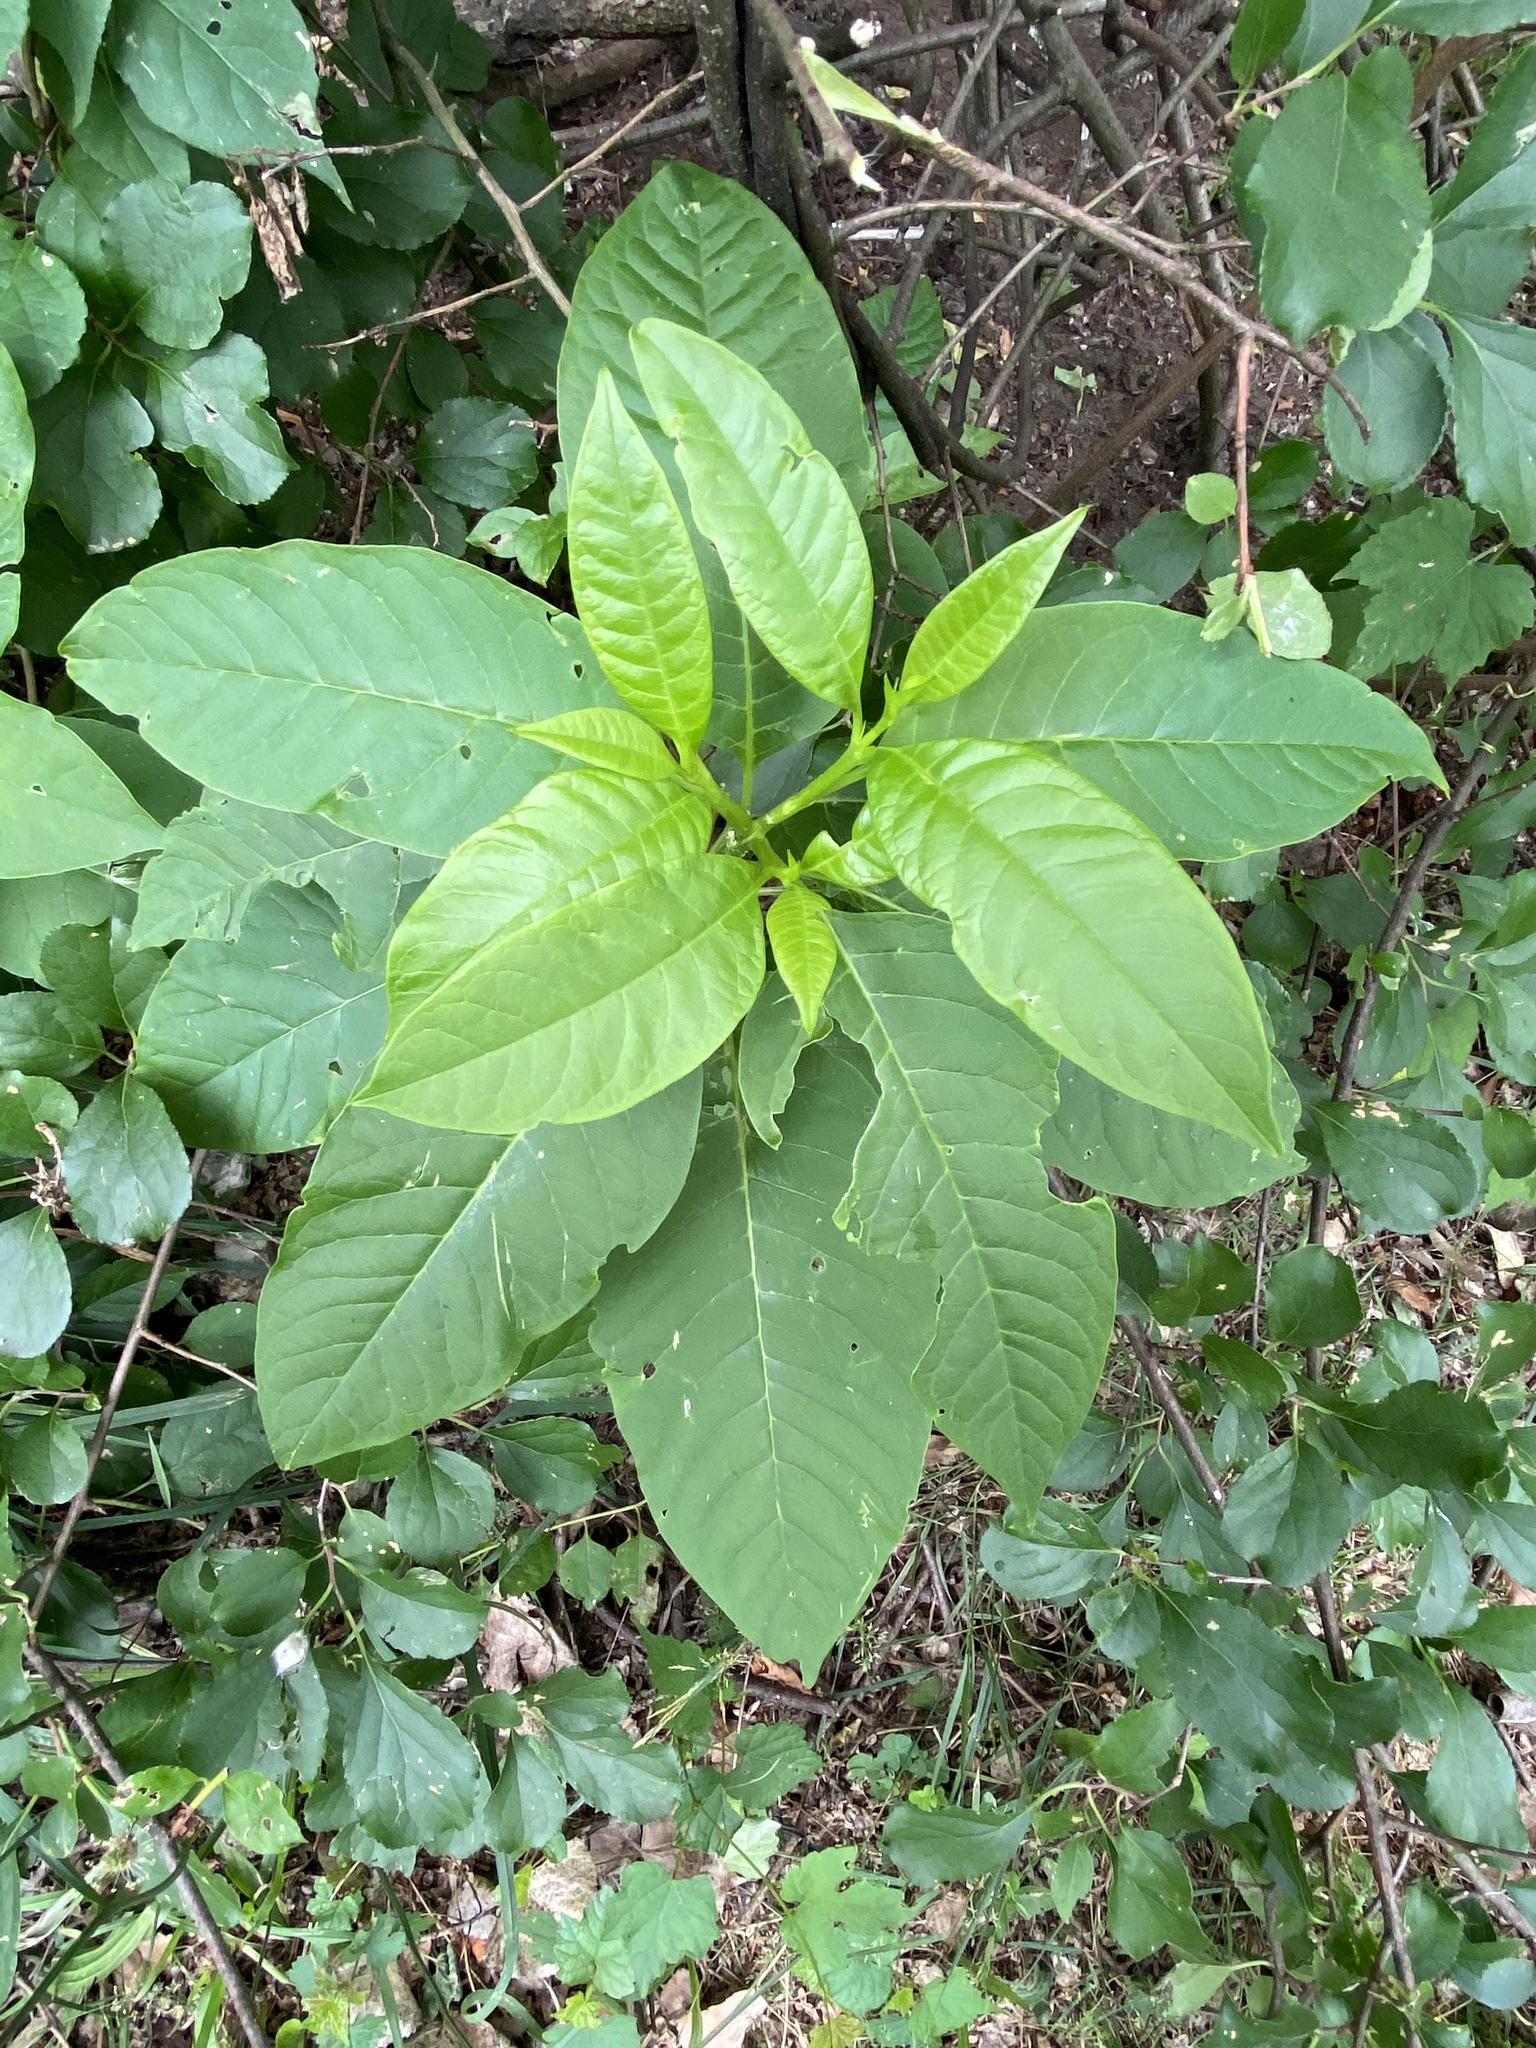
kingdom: Plantae
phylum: Tracheophyta
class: Magnoliopsida
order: Caryophyllales
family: Phytolaccaceae
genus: Phytolacca
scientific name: Phytolacca americana
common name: American pokeweed
